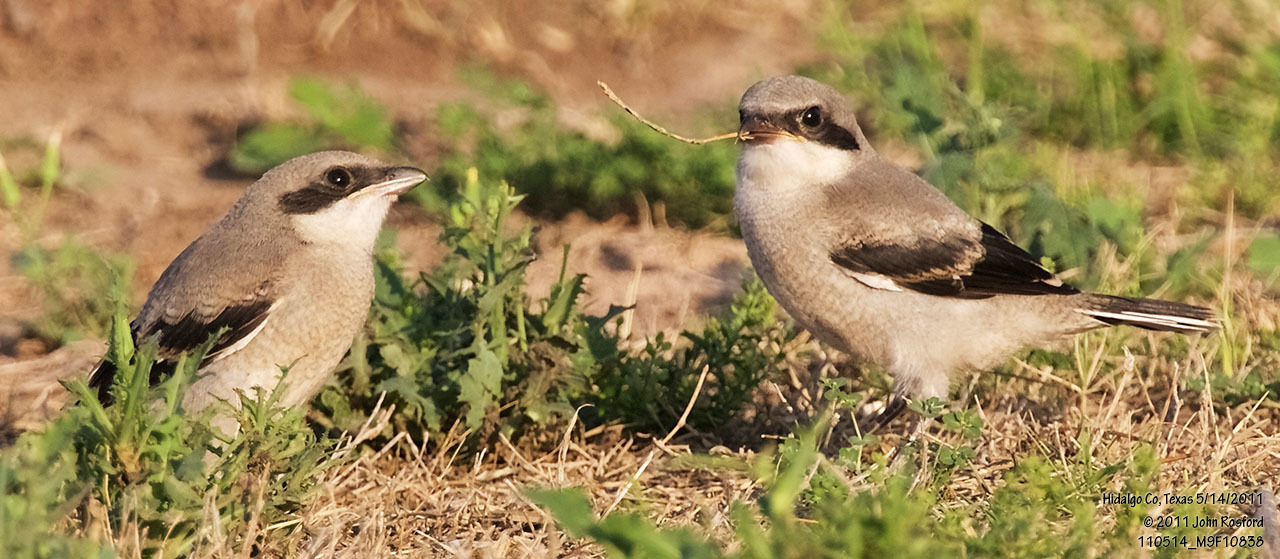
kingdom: Animalia
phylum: Chordata
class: Aves
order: Passeriformes
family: Laniidae
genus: Lanius
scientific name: Lanius ludovicianus
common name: Loggerhead shrike
